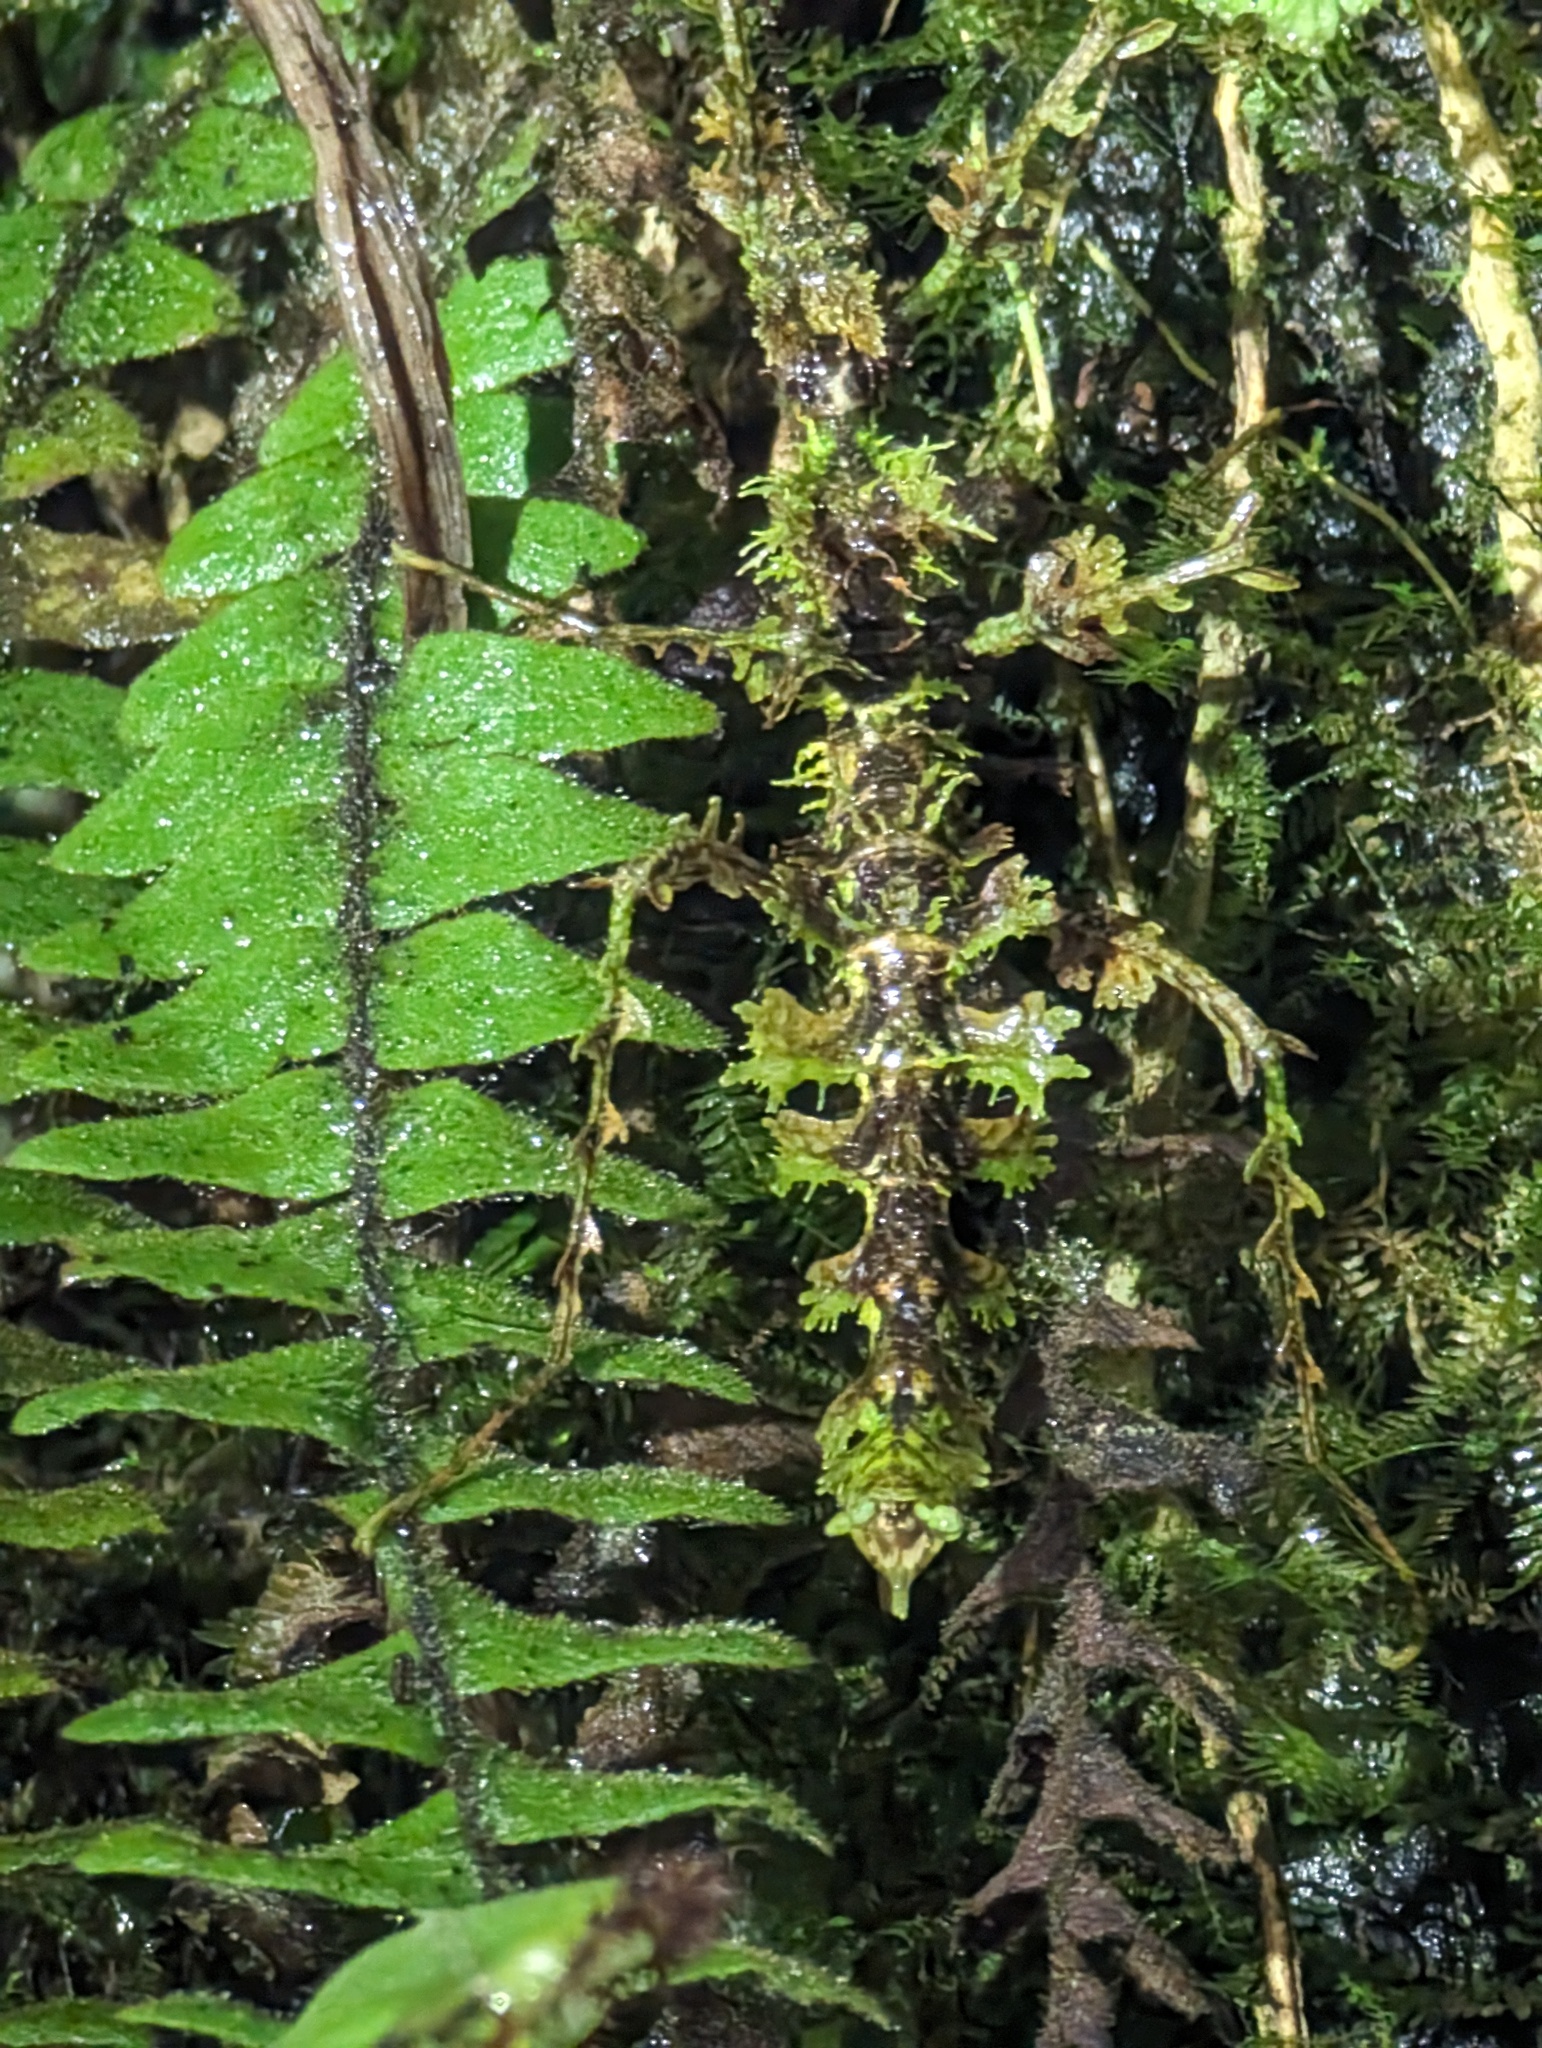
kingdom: Animalia
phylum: Arthropoda
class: Insecta
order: Phasmida
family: Diapheromeridae
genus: Trychopeplus
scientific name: Trychopeplus laciniatus
